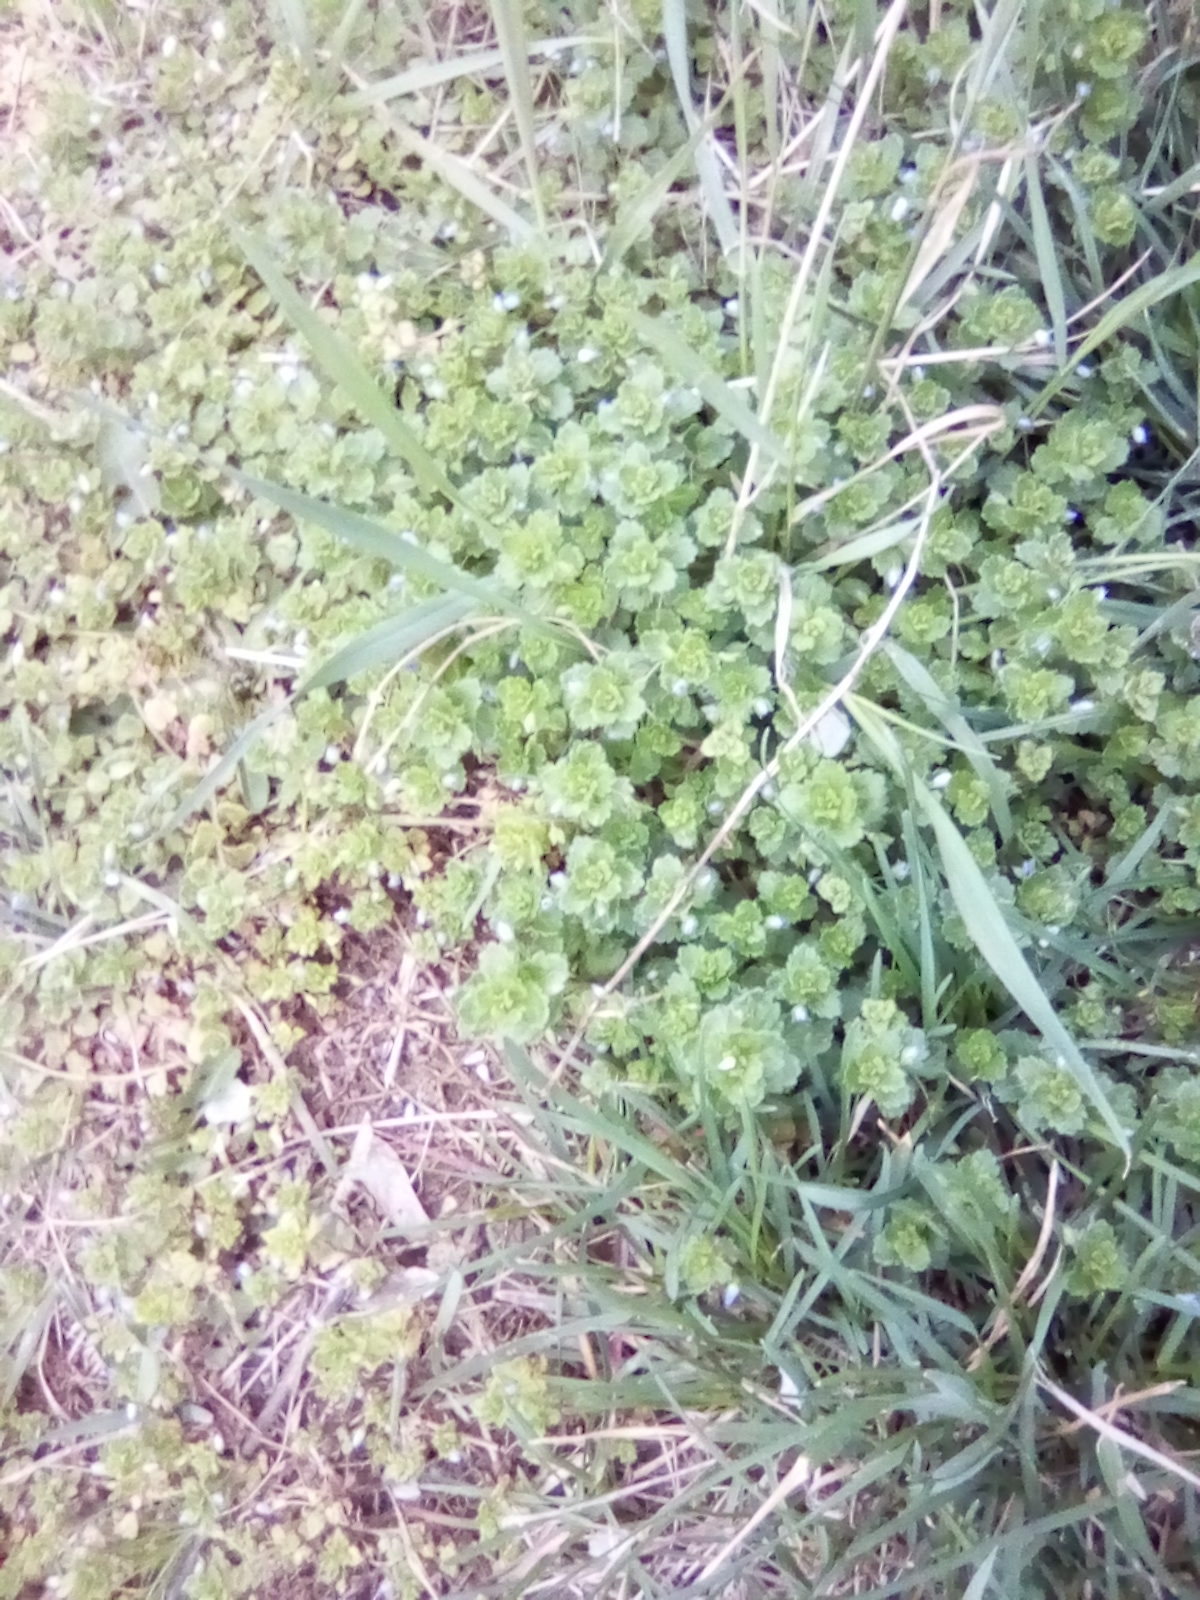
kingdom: Plantae
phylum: Tracheophyta
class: Magnoliopsida
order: Lamiales
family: Plantaginaceae
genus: Veronica
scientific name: Veronica persica
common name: Common field-speedwell
